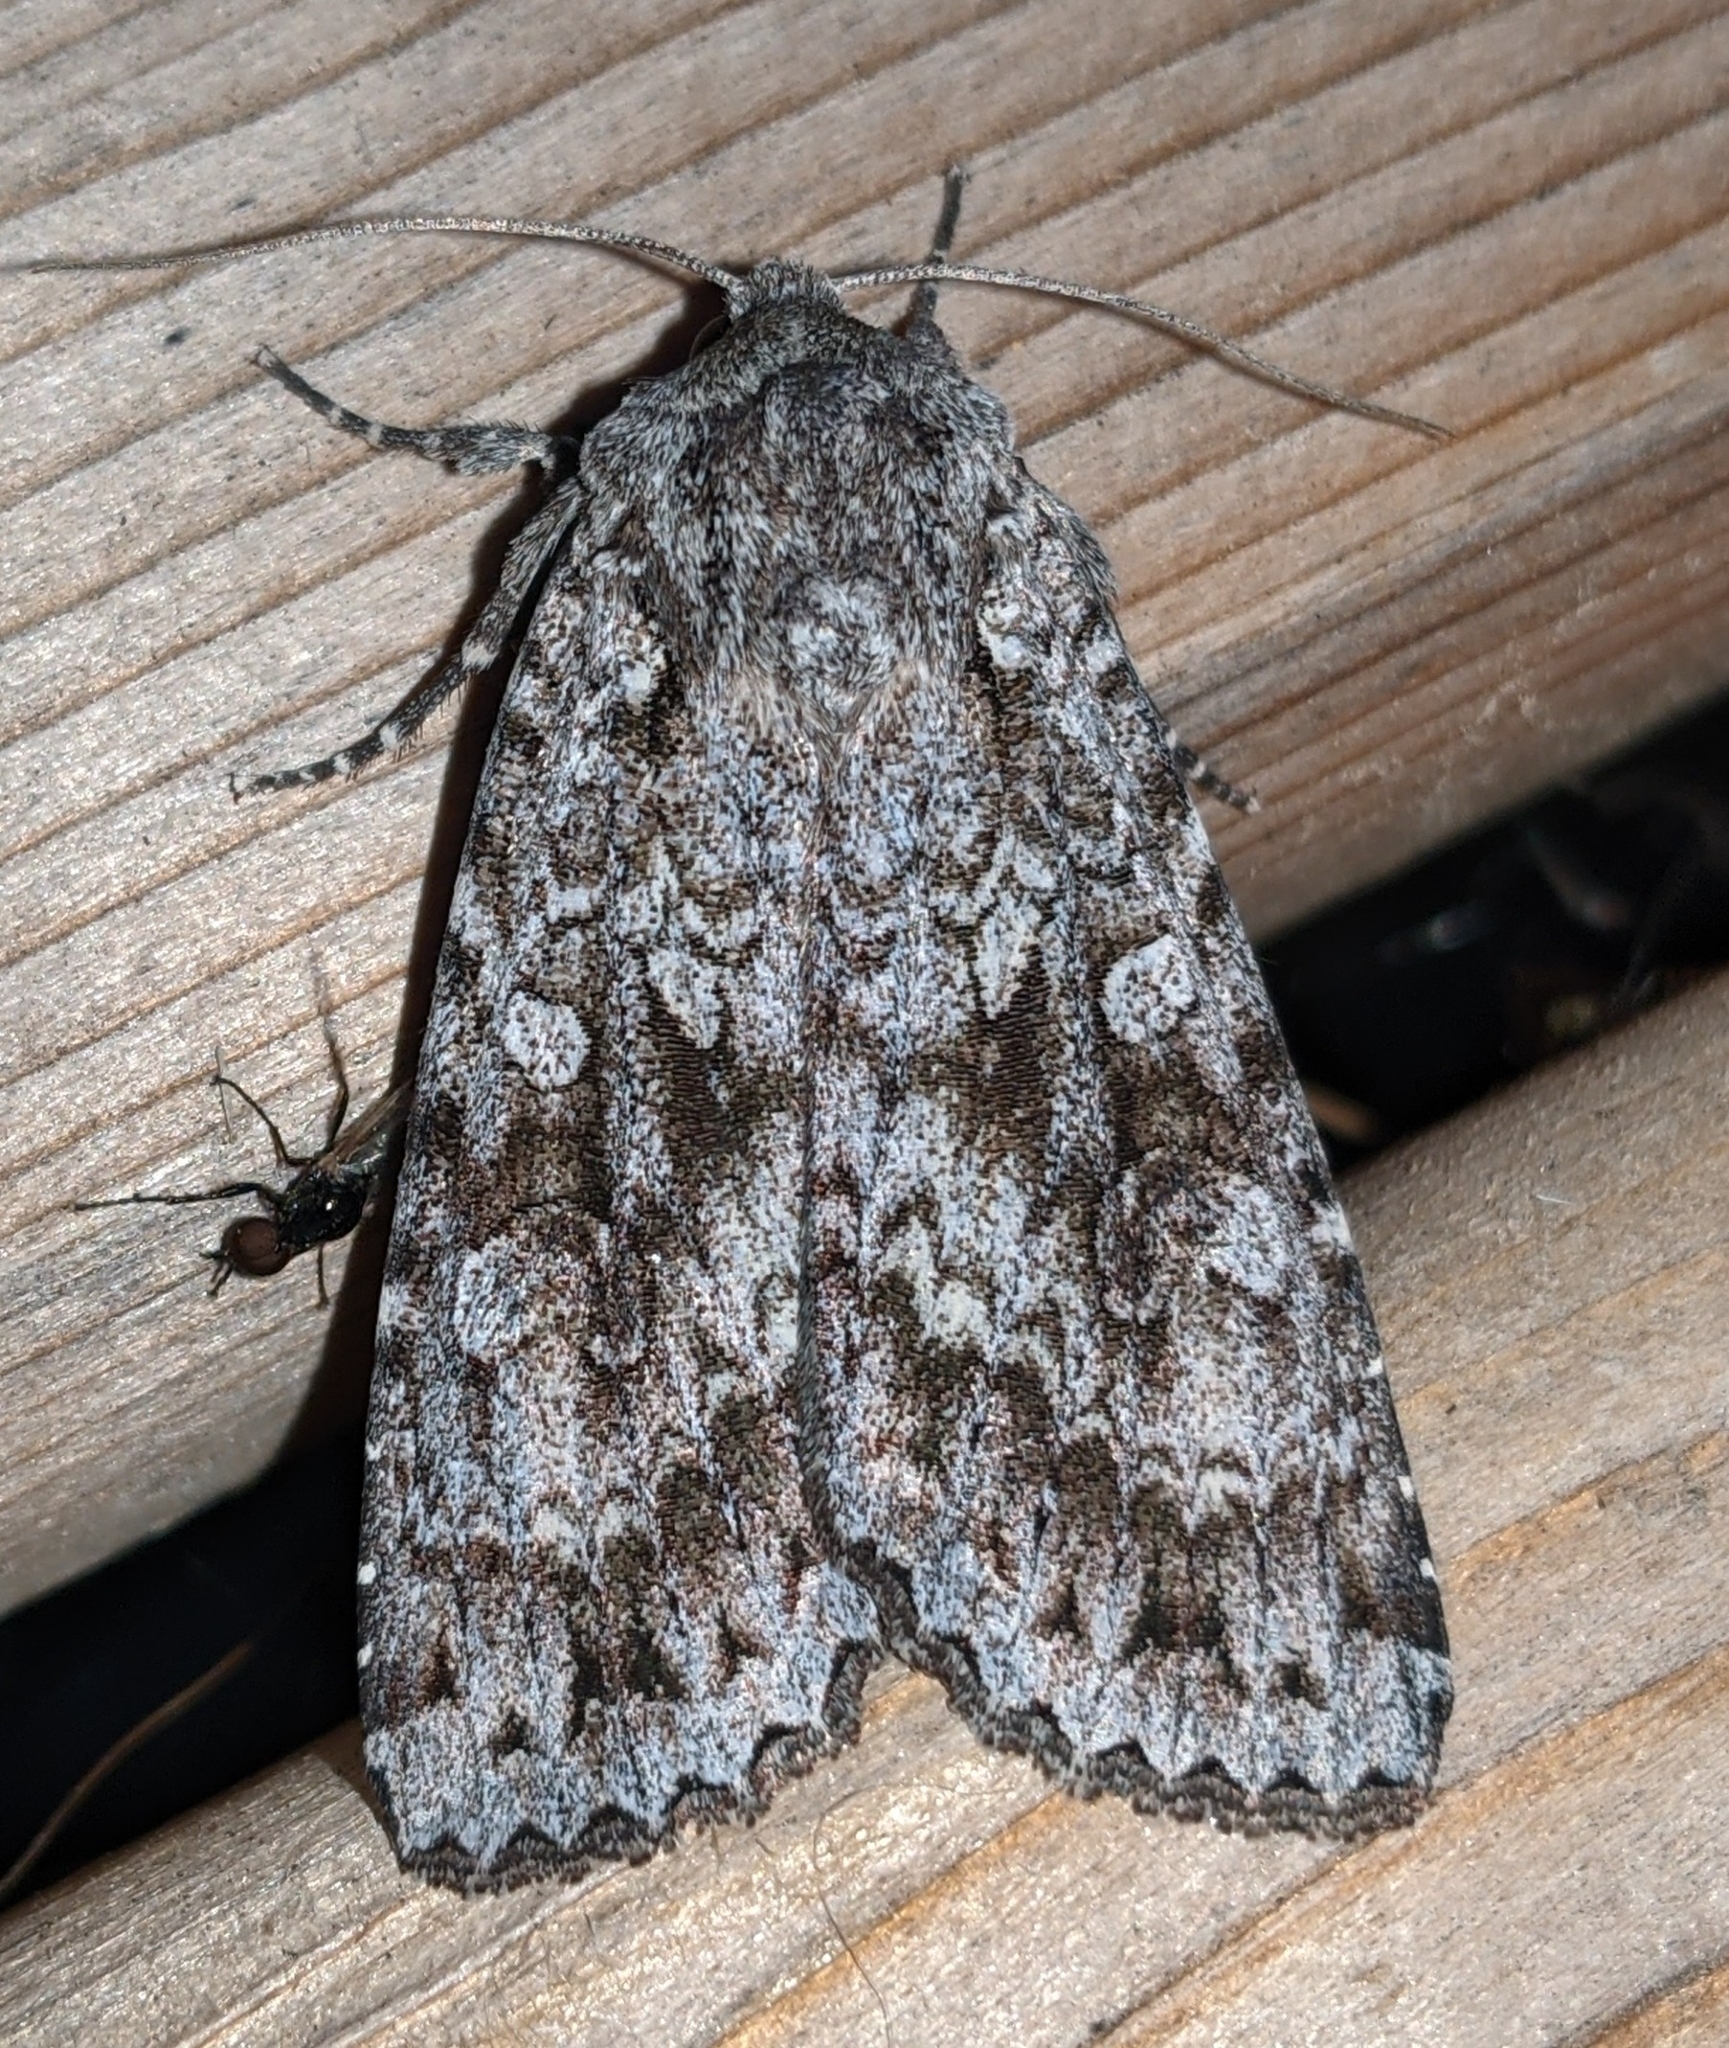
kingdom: Animalia
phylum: Arthropoda
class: Insecta
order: Lepidoptera
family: Noctuidae
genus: Eurois
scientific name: Eurois occulta
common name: Great brocade
